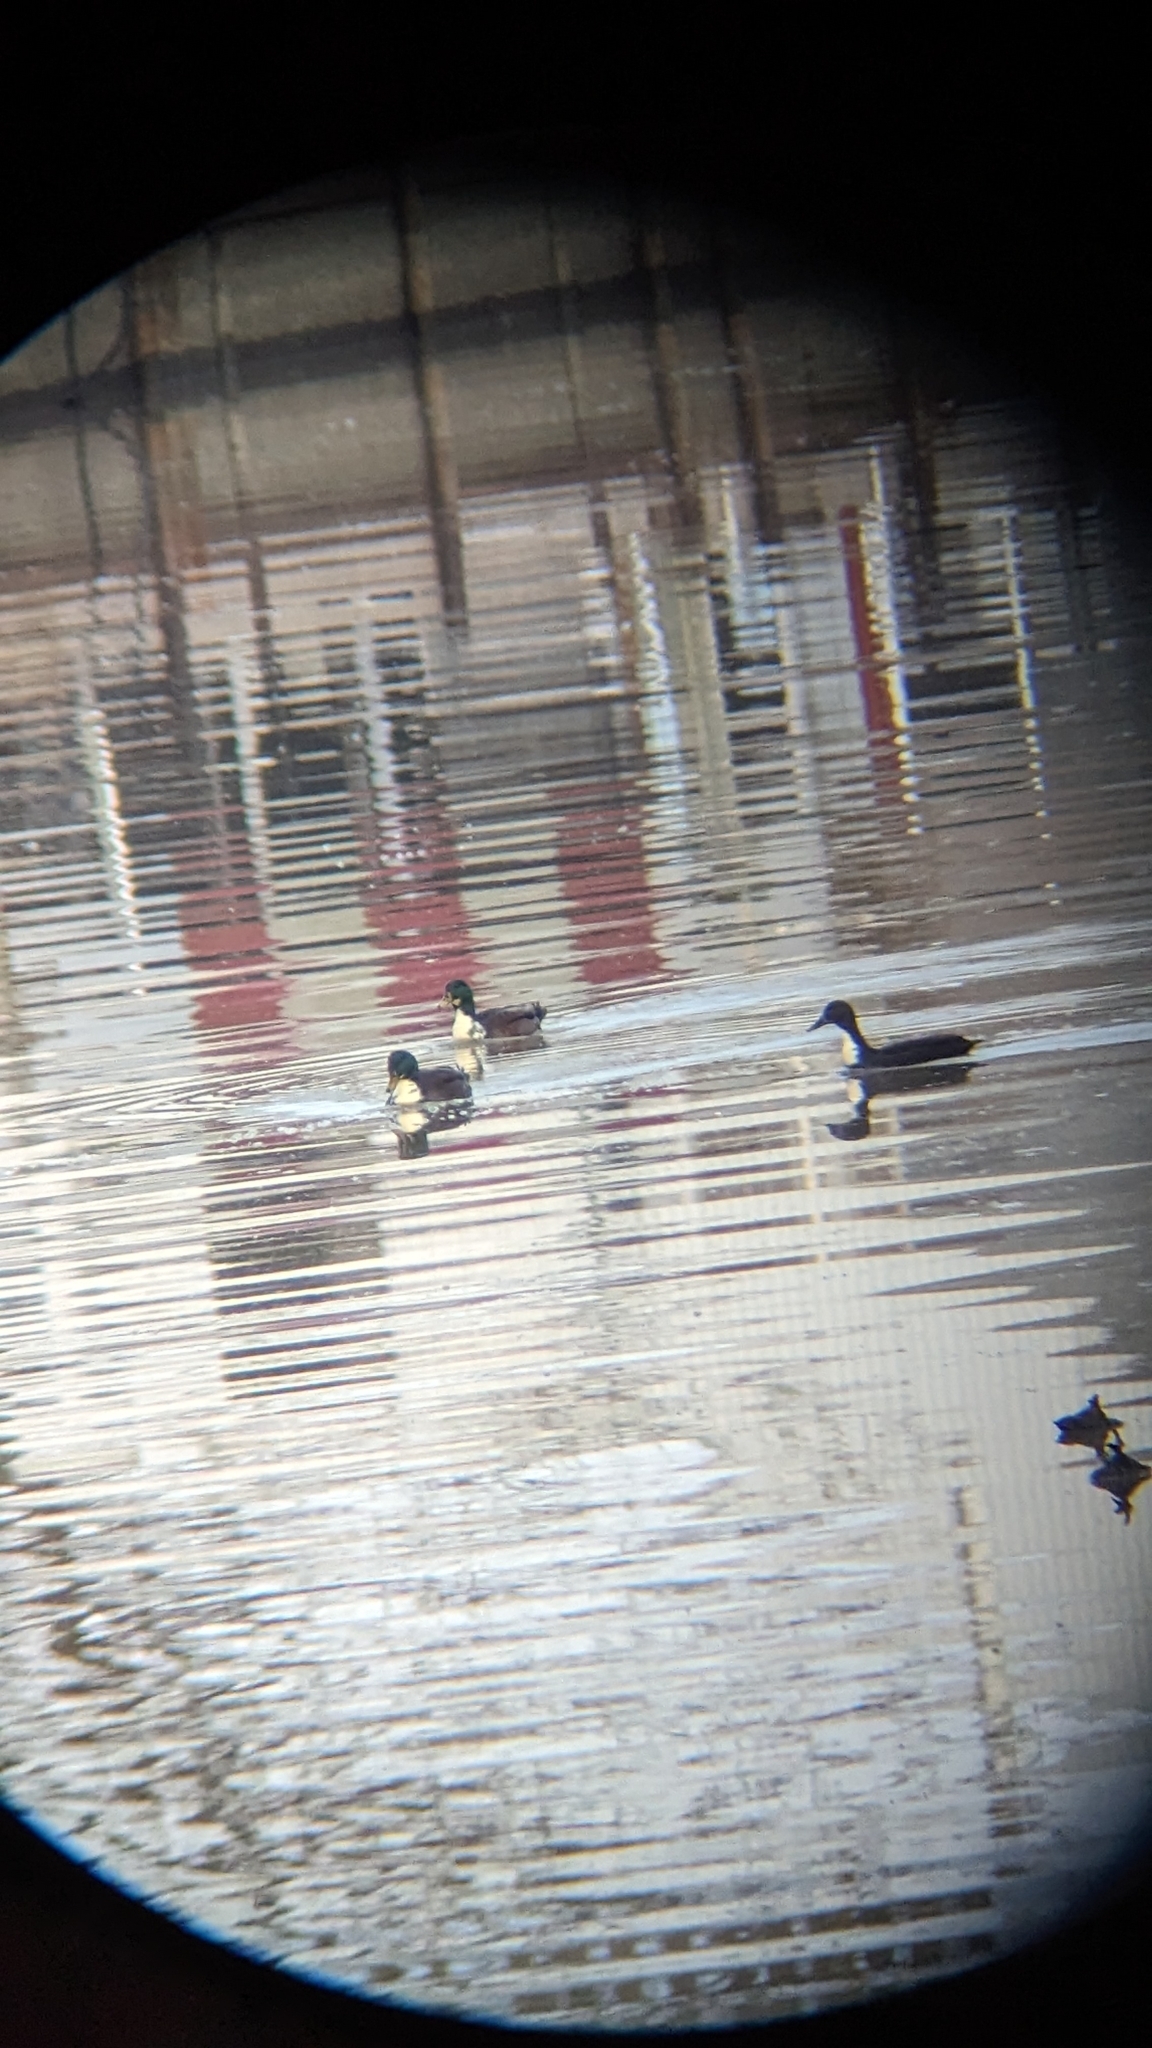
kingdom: Animalia
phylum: Chordata
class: Aves
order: Anseriformes
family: Anatidae
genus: Anas
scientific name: Anas platyrhynchos
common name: Mallard
